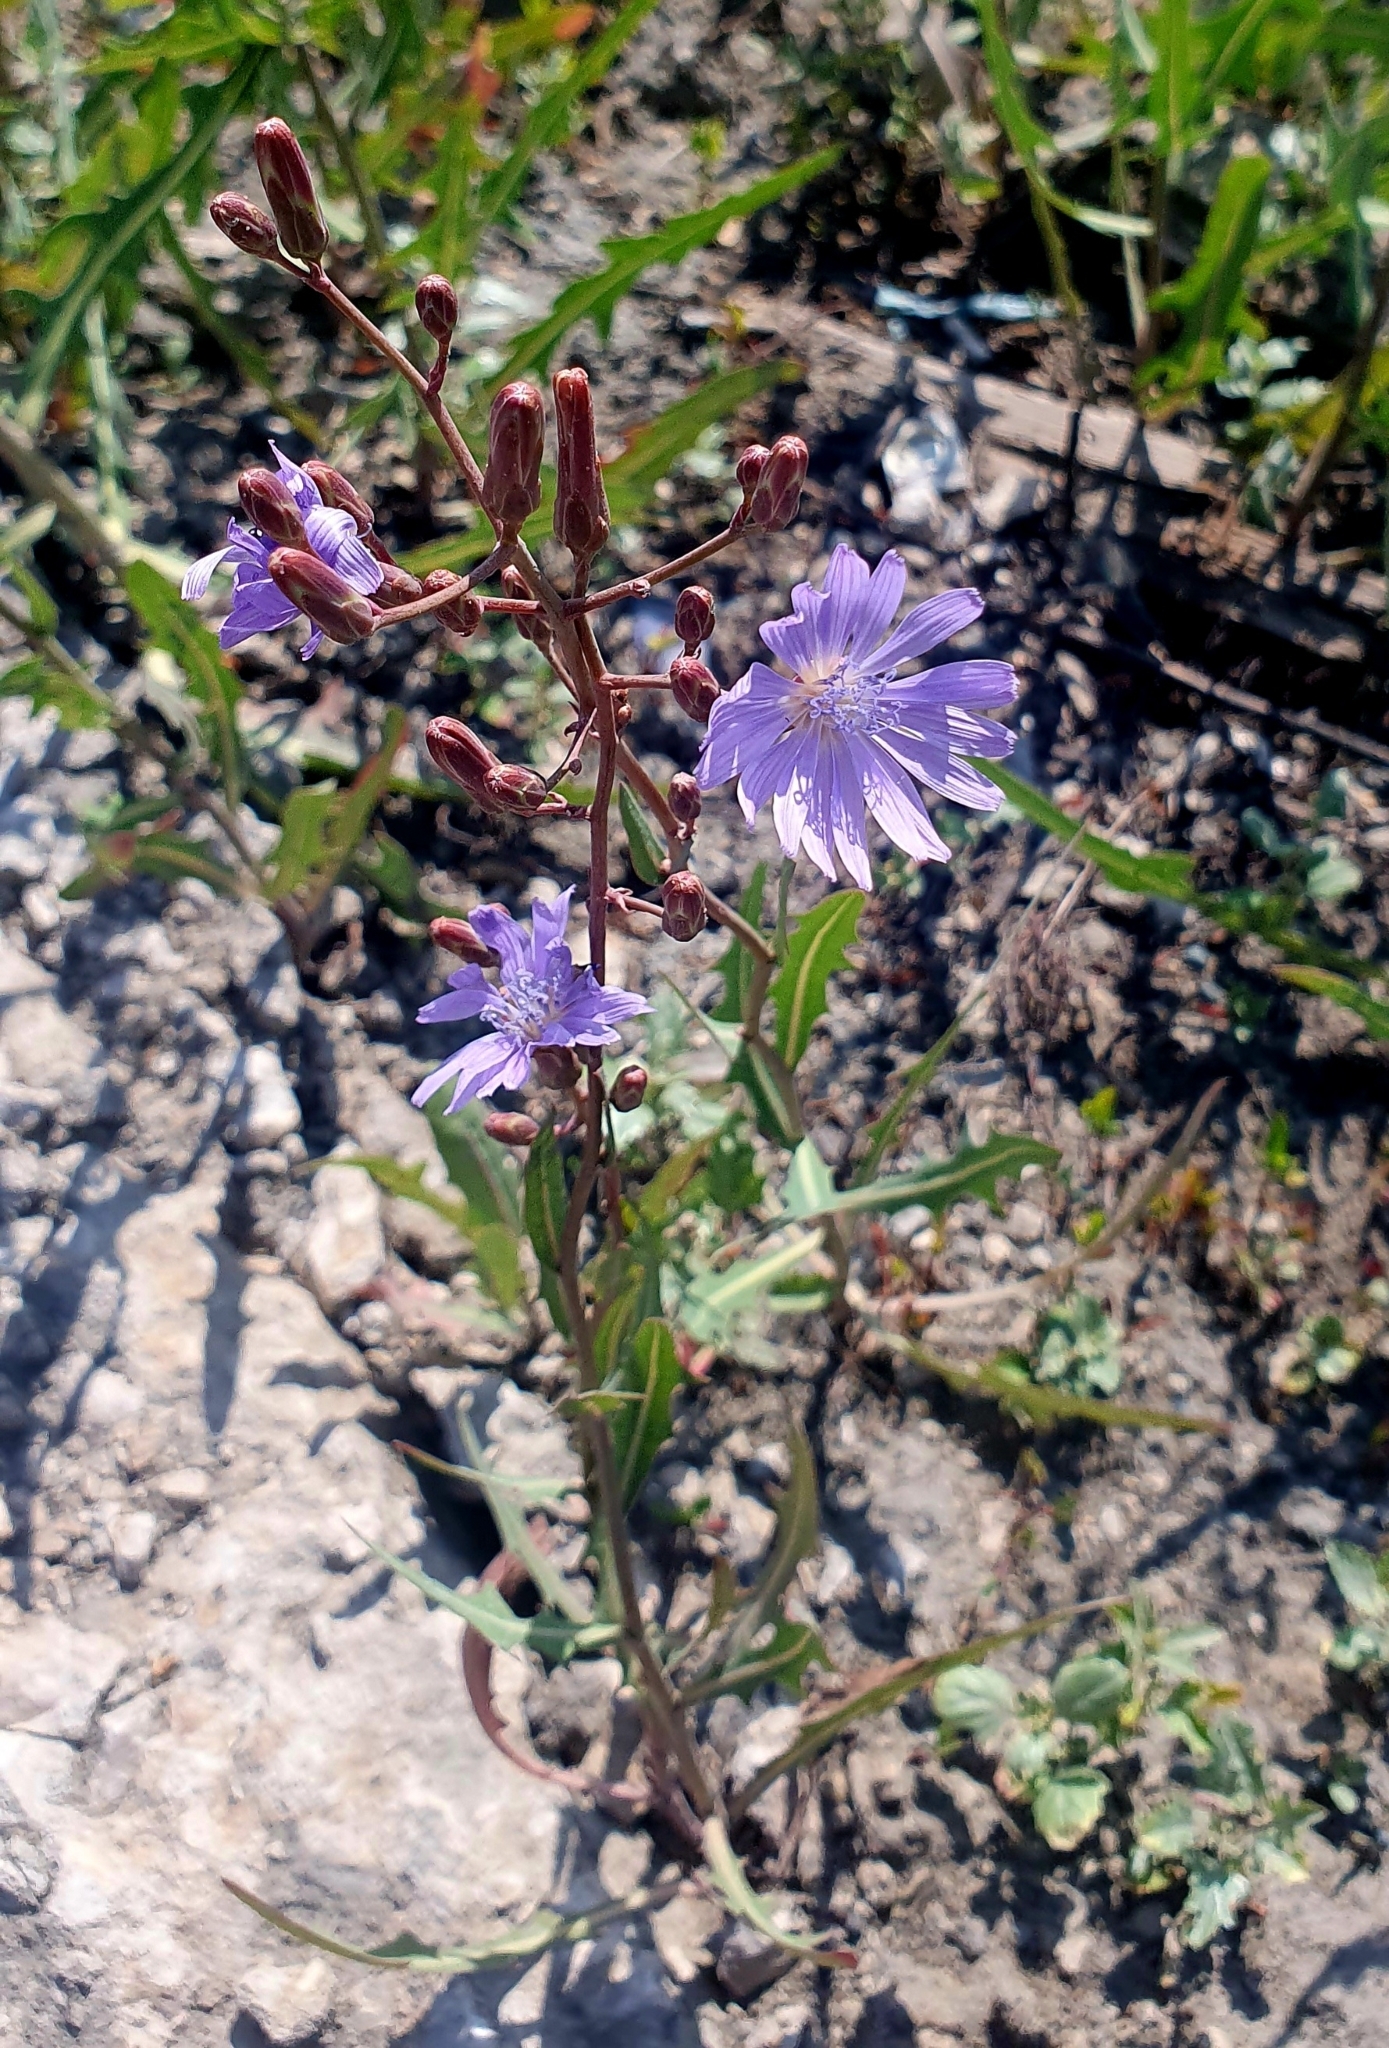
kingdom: Plantae
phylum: Tracheophyta
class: Magnoliopsida
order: Asterales
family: Asteraceae
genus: Lactuca
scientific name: Lactuca tatarica
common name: Blue lettuce
